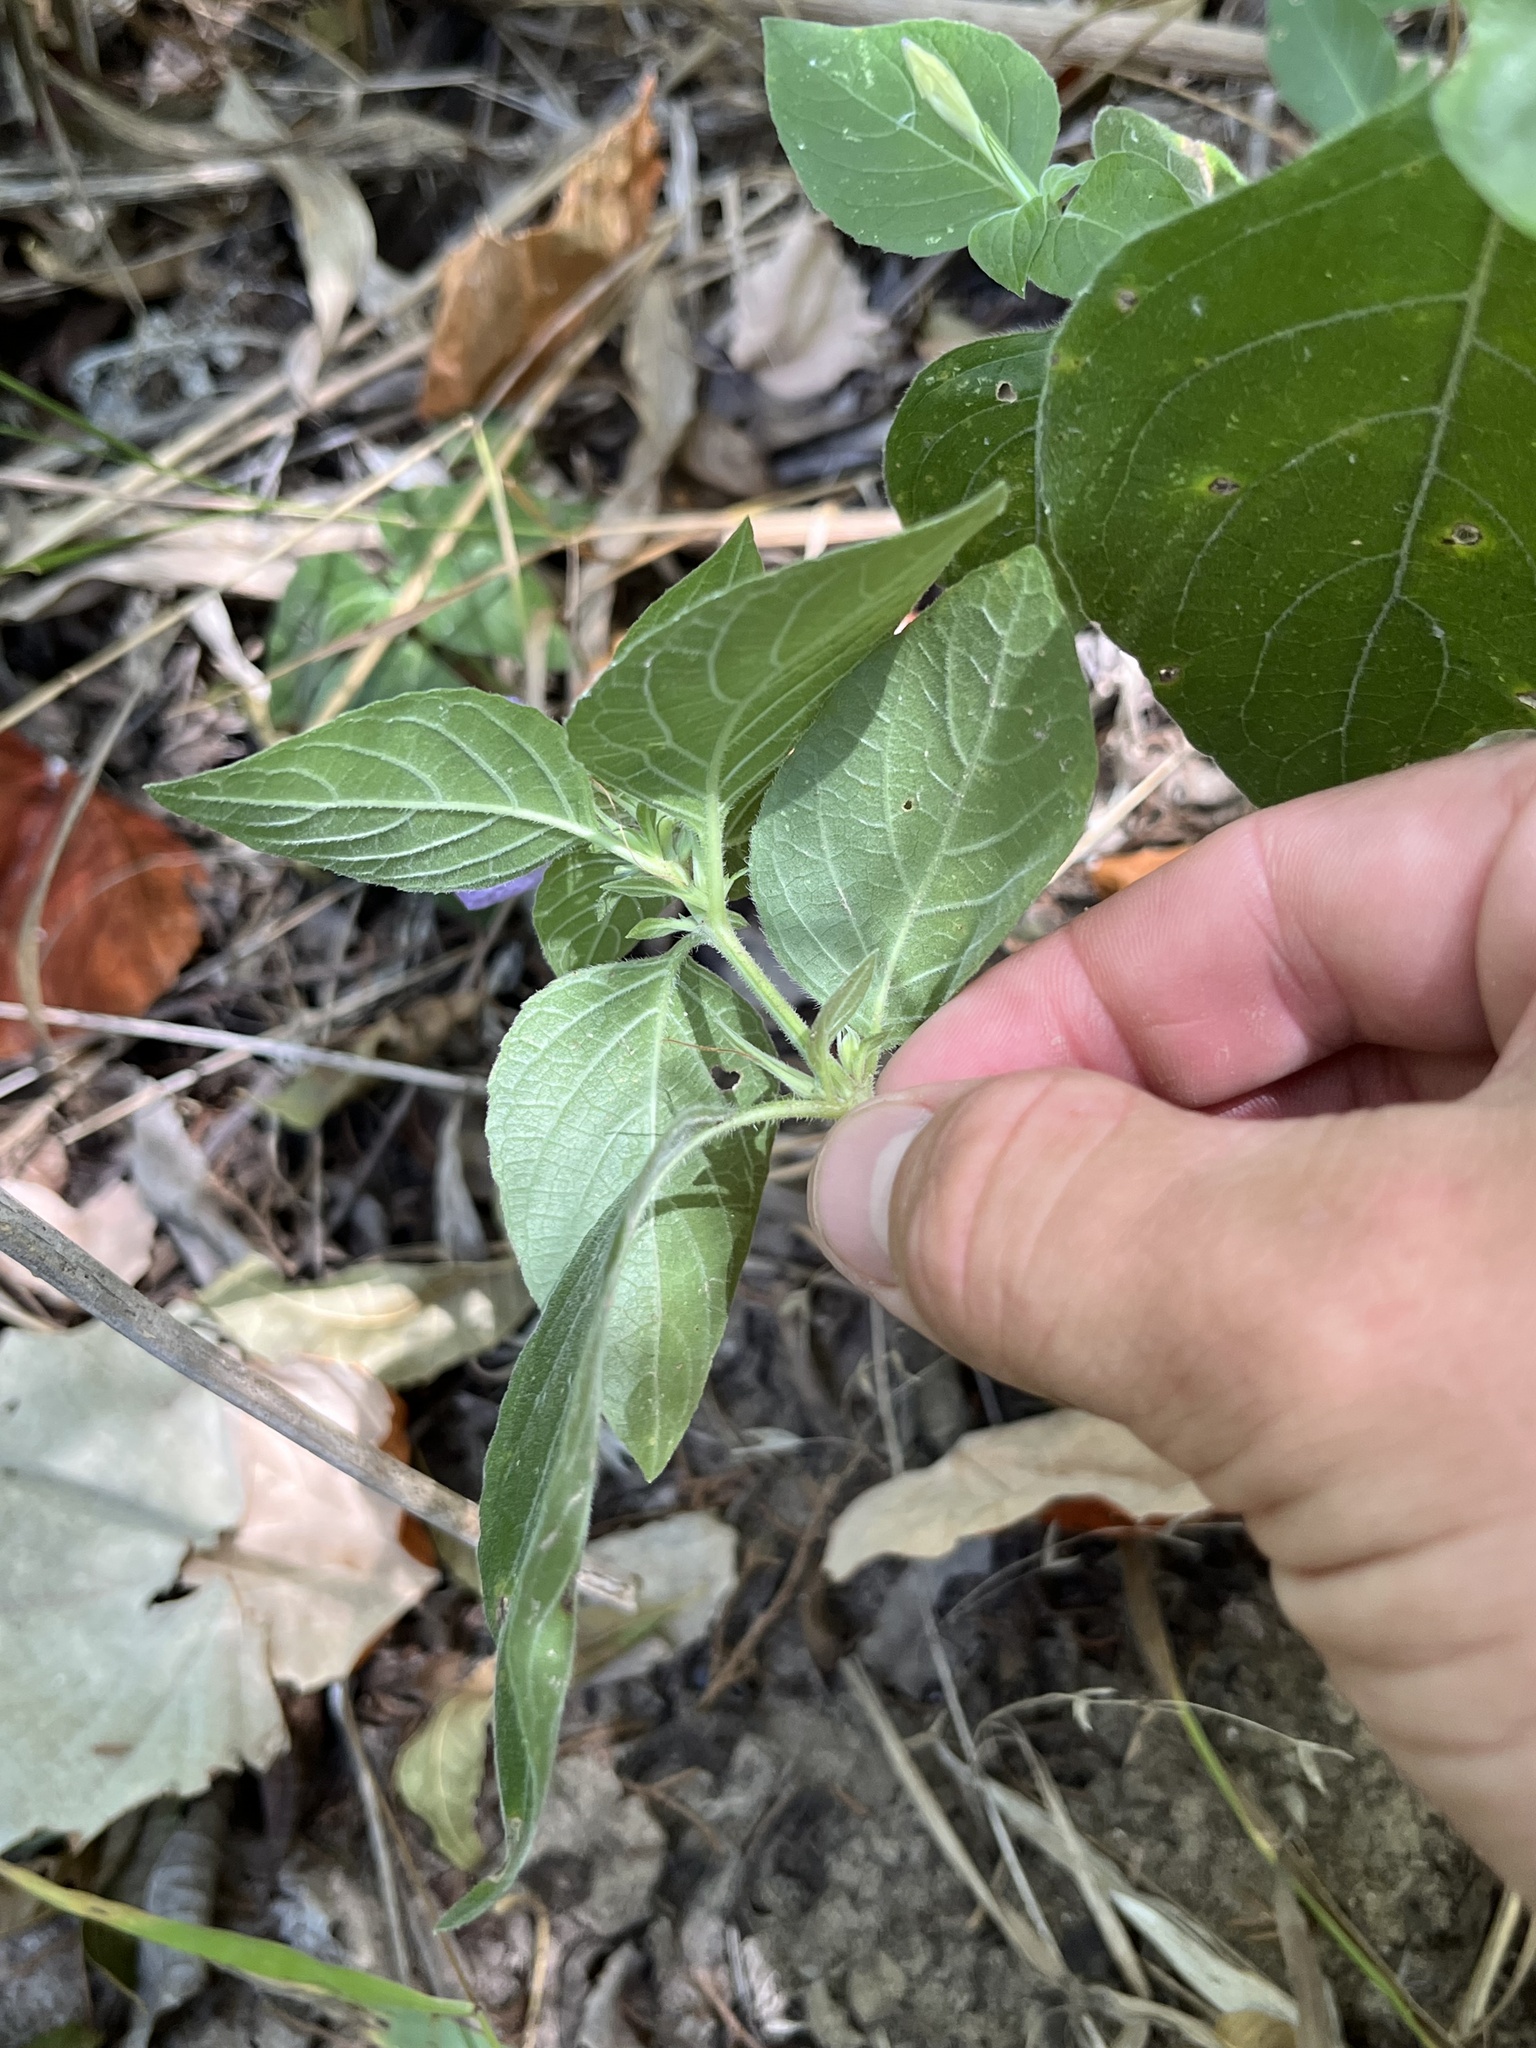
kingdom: Plantae
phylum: Tracheophyta
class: Magnoliopsida
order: Lamiales
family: Acanthaceae
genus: Ruellia
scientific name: Ruellia drummondiana
